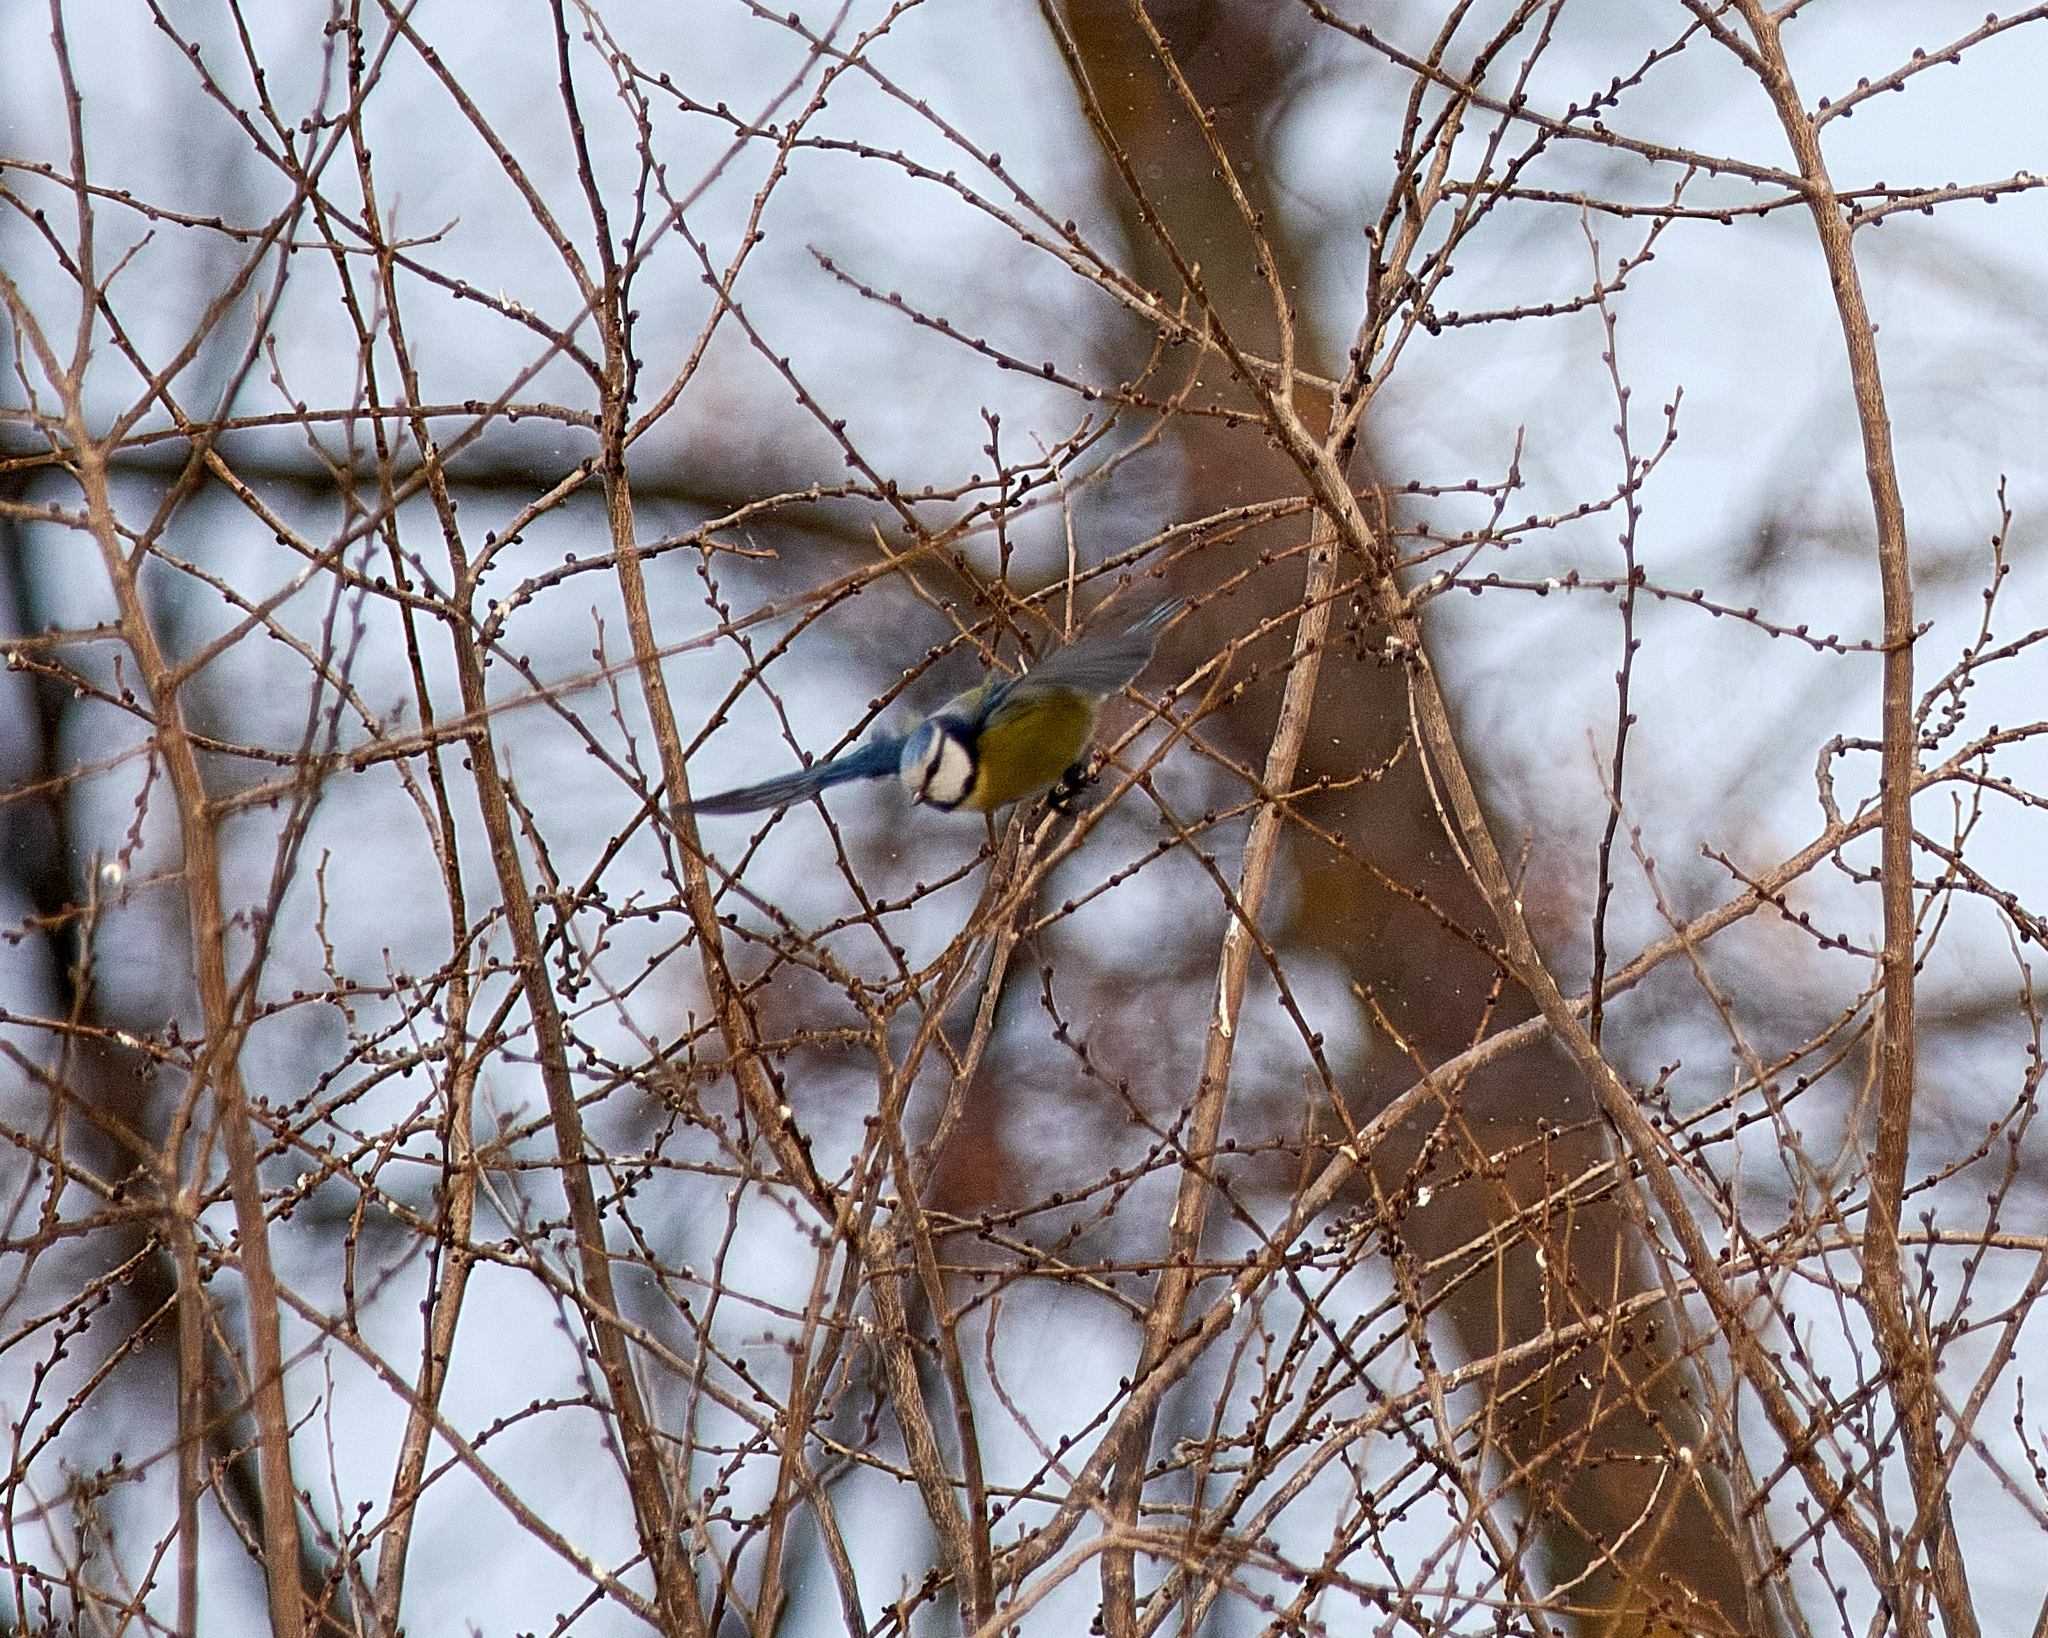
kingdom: Animalia
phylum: Chordata
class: Aves
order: Passeriformes
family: Paridae
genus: Cyanistes
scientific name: Cyanistes caeruleus
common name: Eurasian blue tit
